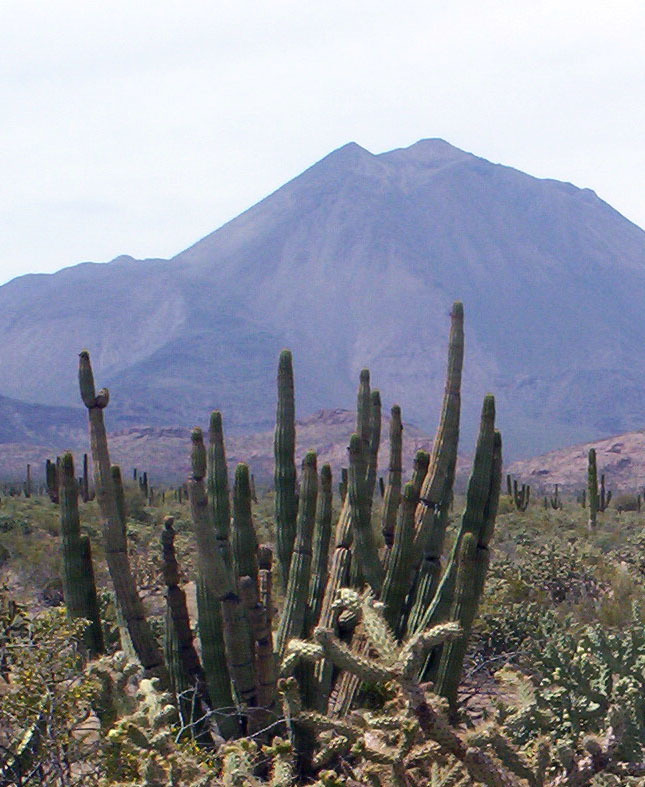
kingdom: Plantae
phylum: Tracheophyta
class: Magnoliopsida
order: Caryophyllales
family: Cactaceae
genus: Stenocereus
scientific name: Stenocereus thurberi
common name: Organ pipe cactus
